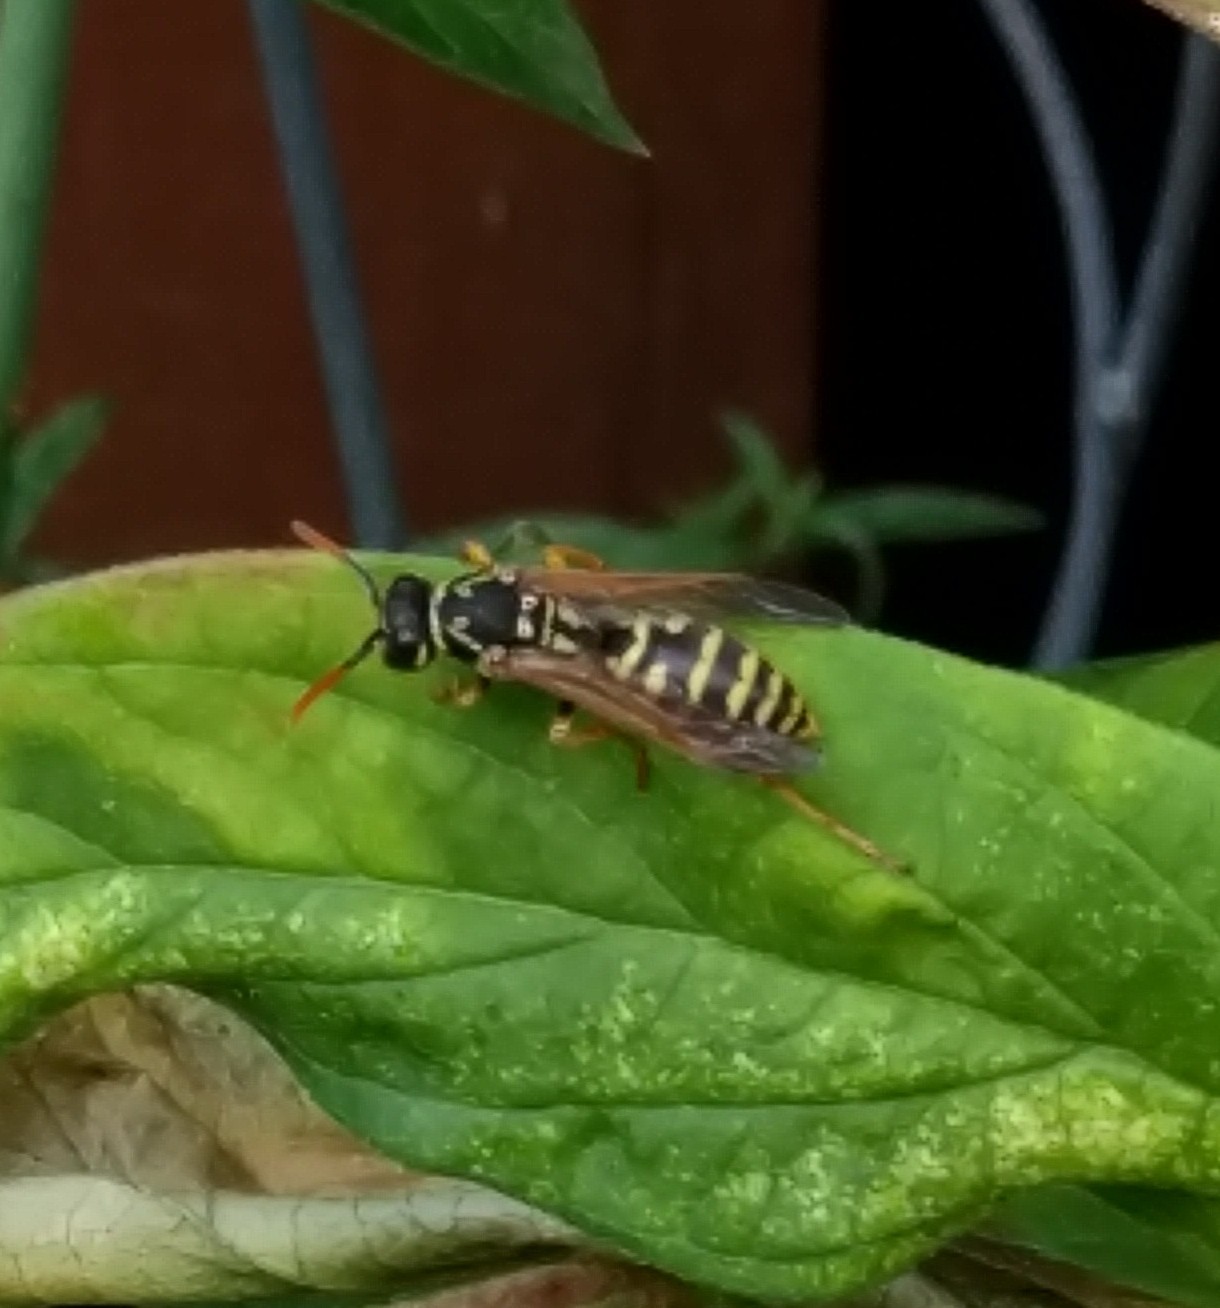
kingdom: Animalia
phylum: Arthropoda
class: Insecta
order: Hymenoptera
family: Eumenidae
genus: Polistes
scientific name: Polistes dominula
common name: Paper wasp
